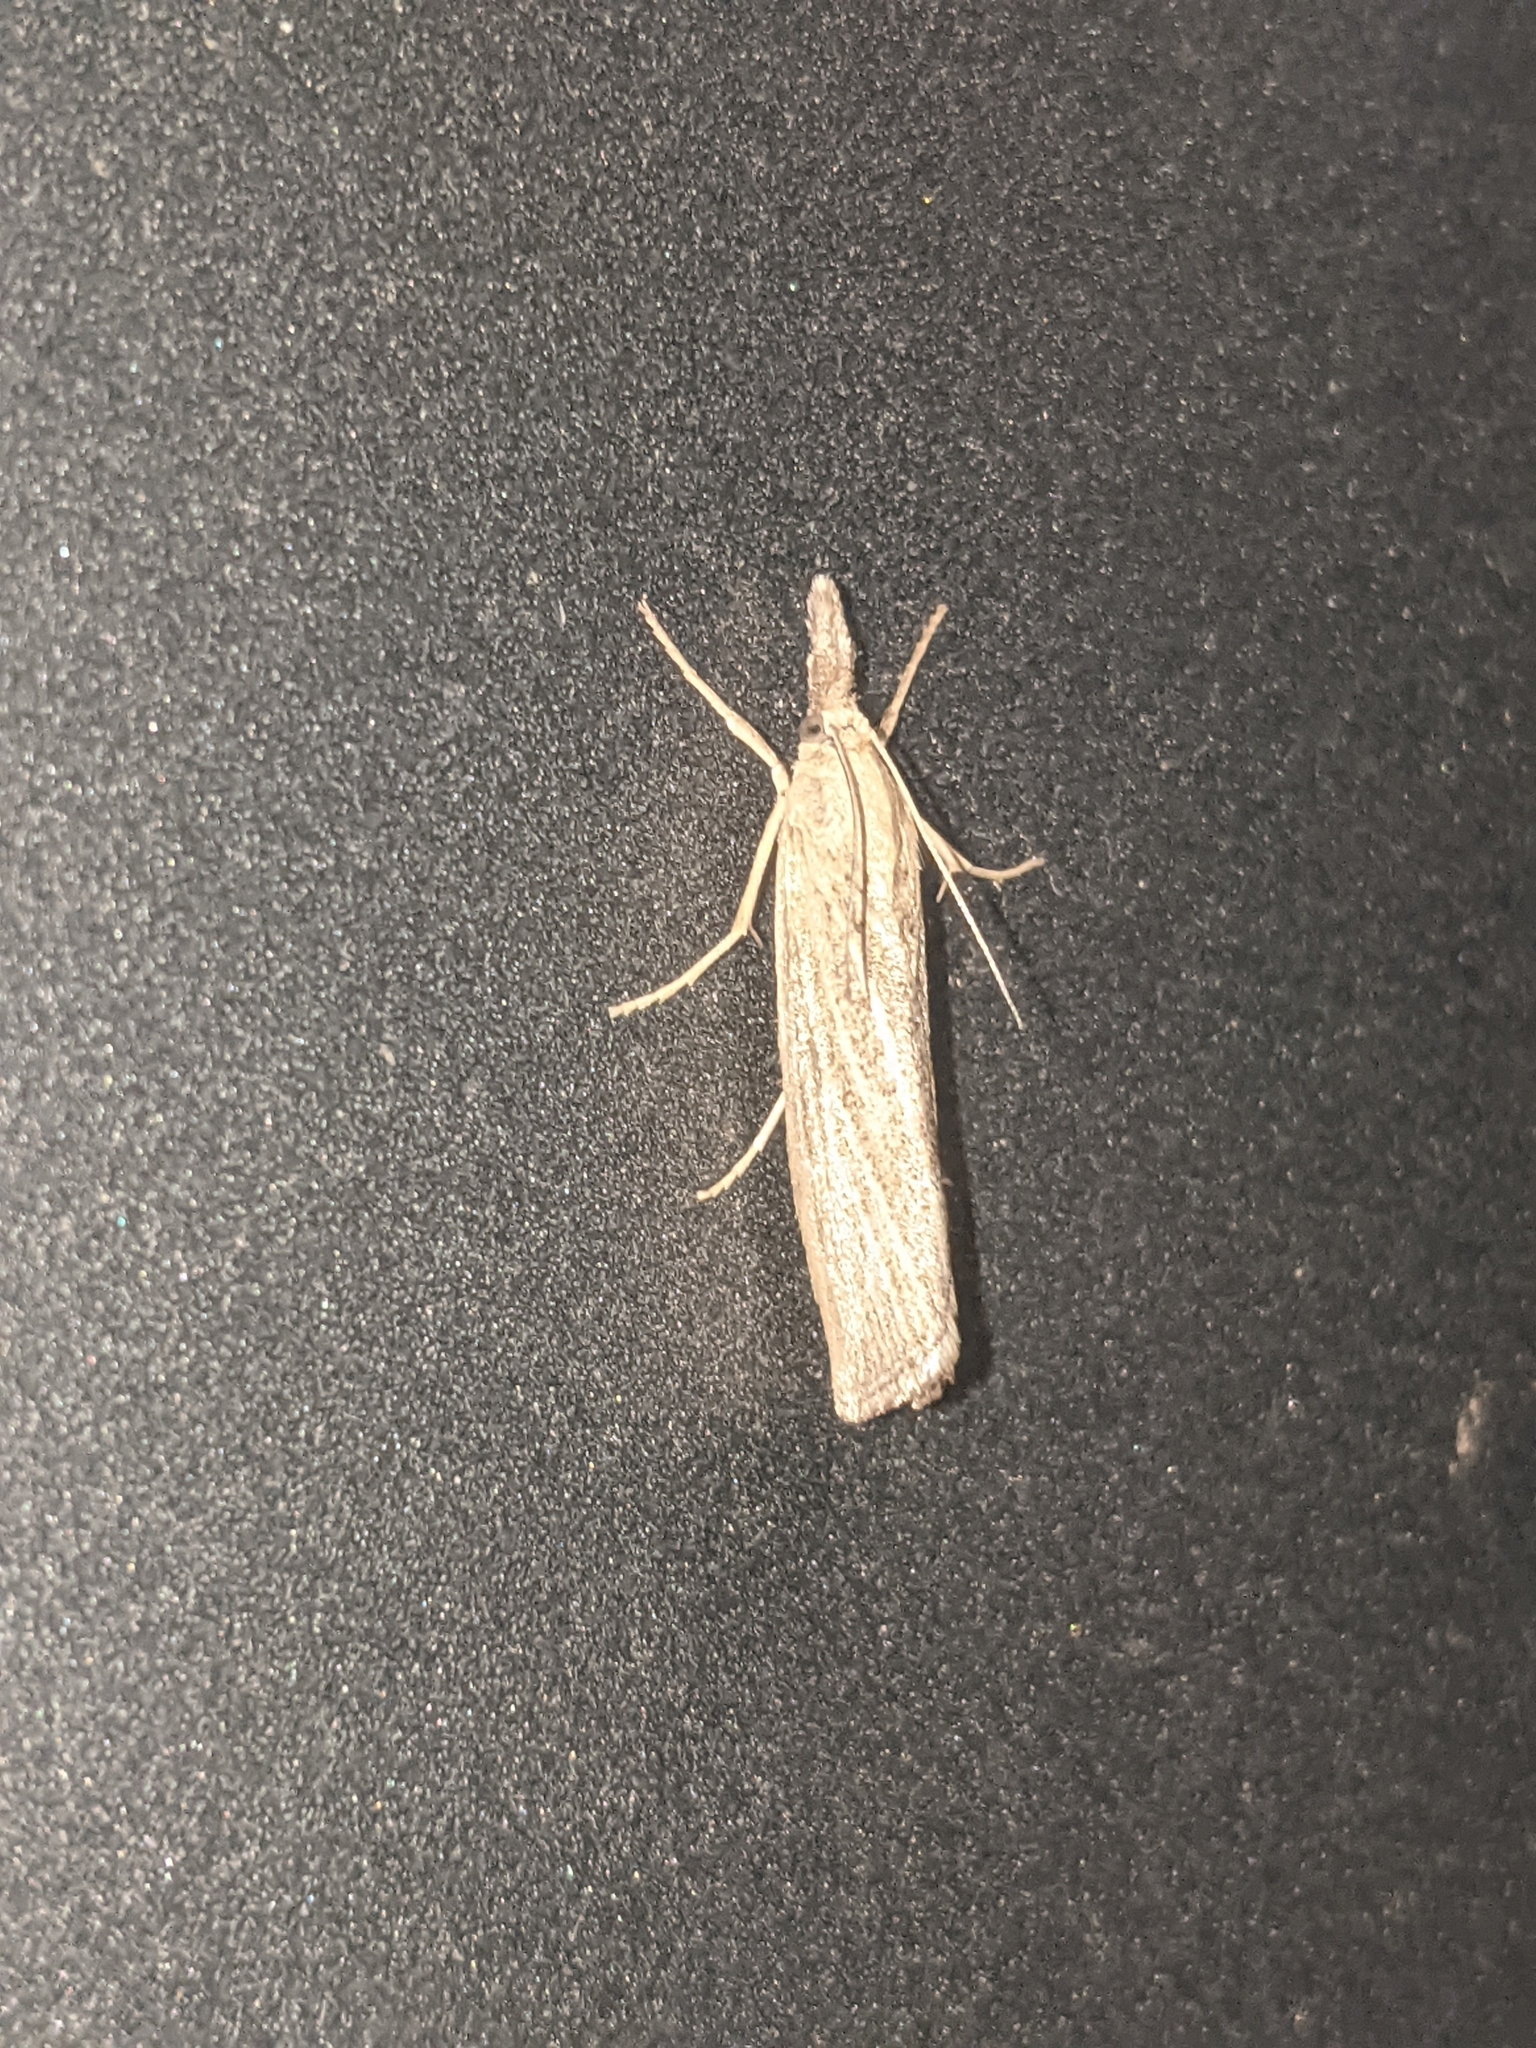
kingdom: Animalia
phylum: Arthropoda
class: Insecta
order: Lepidoptera
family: Crambidae
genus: Pediasia
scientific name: Pediasia luteella
